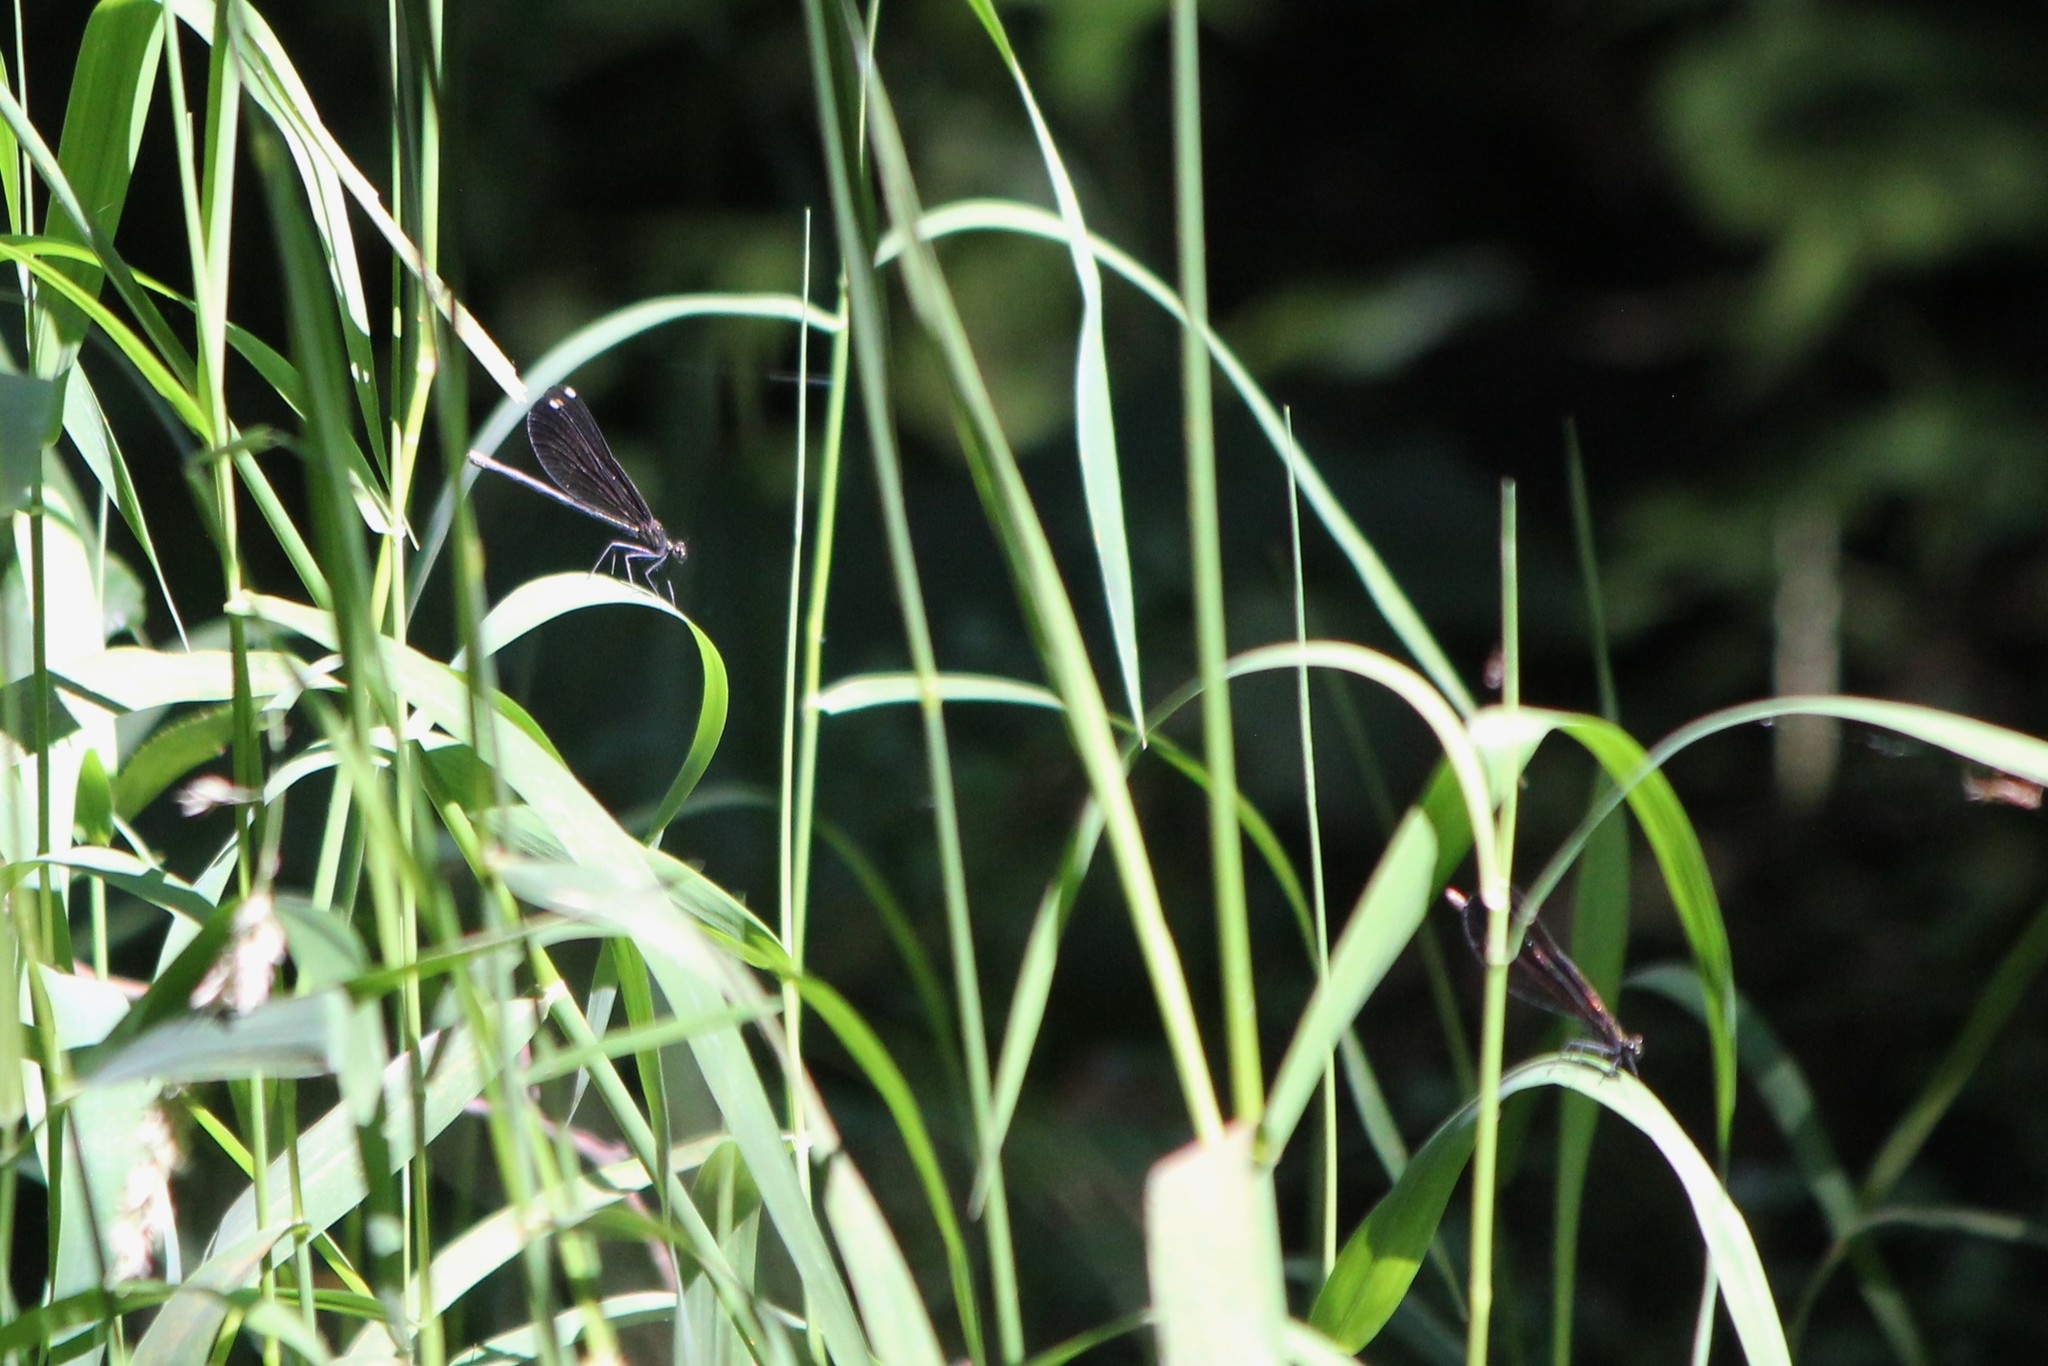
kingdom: Animalia
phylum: Arthropoda
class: Insecta
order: Odonata
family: Calopterygidae
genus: Calopteryx
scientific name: Calopteryx maculata
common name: Ebony jewelwing
